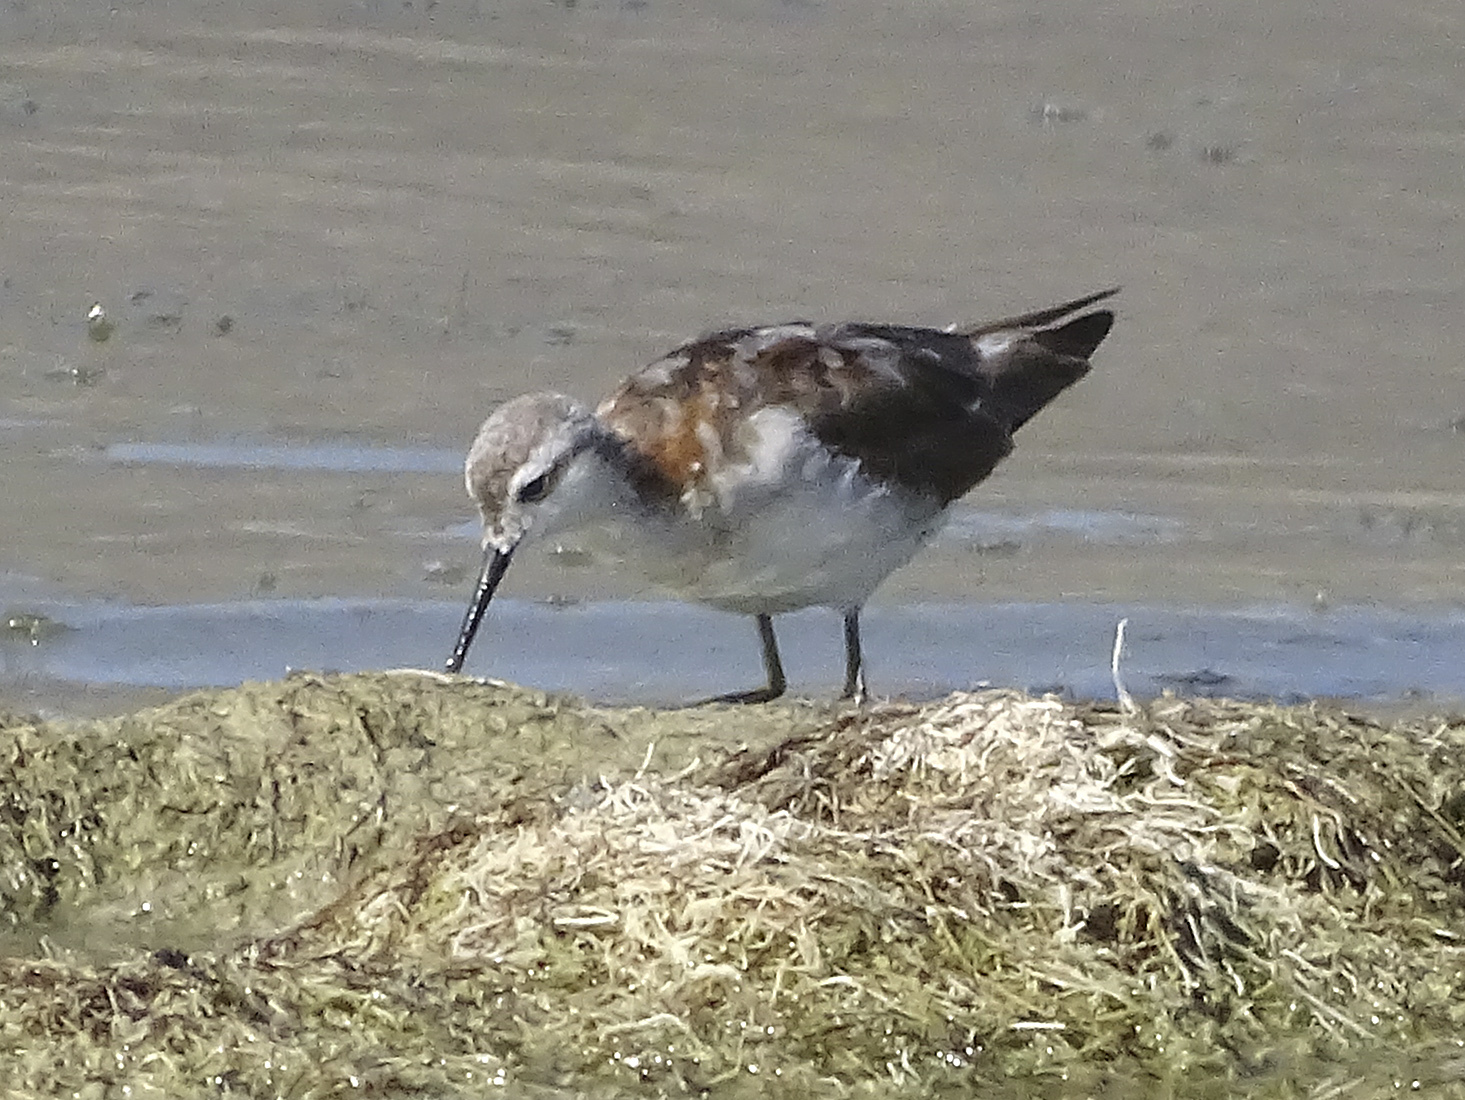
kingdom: Animalia
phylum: Chordata
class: Aves
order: Charadriiformes
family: Scolopacidae
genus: Phalaropus
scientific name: Phalaropus tricolor
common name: Wilson's phalarope
